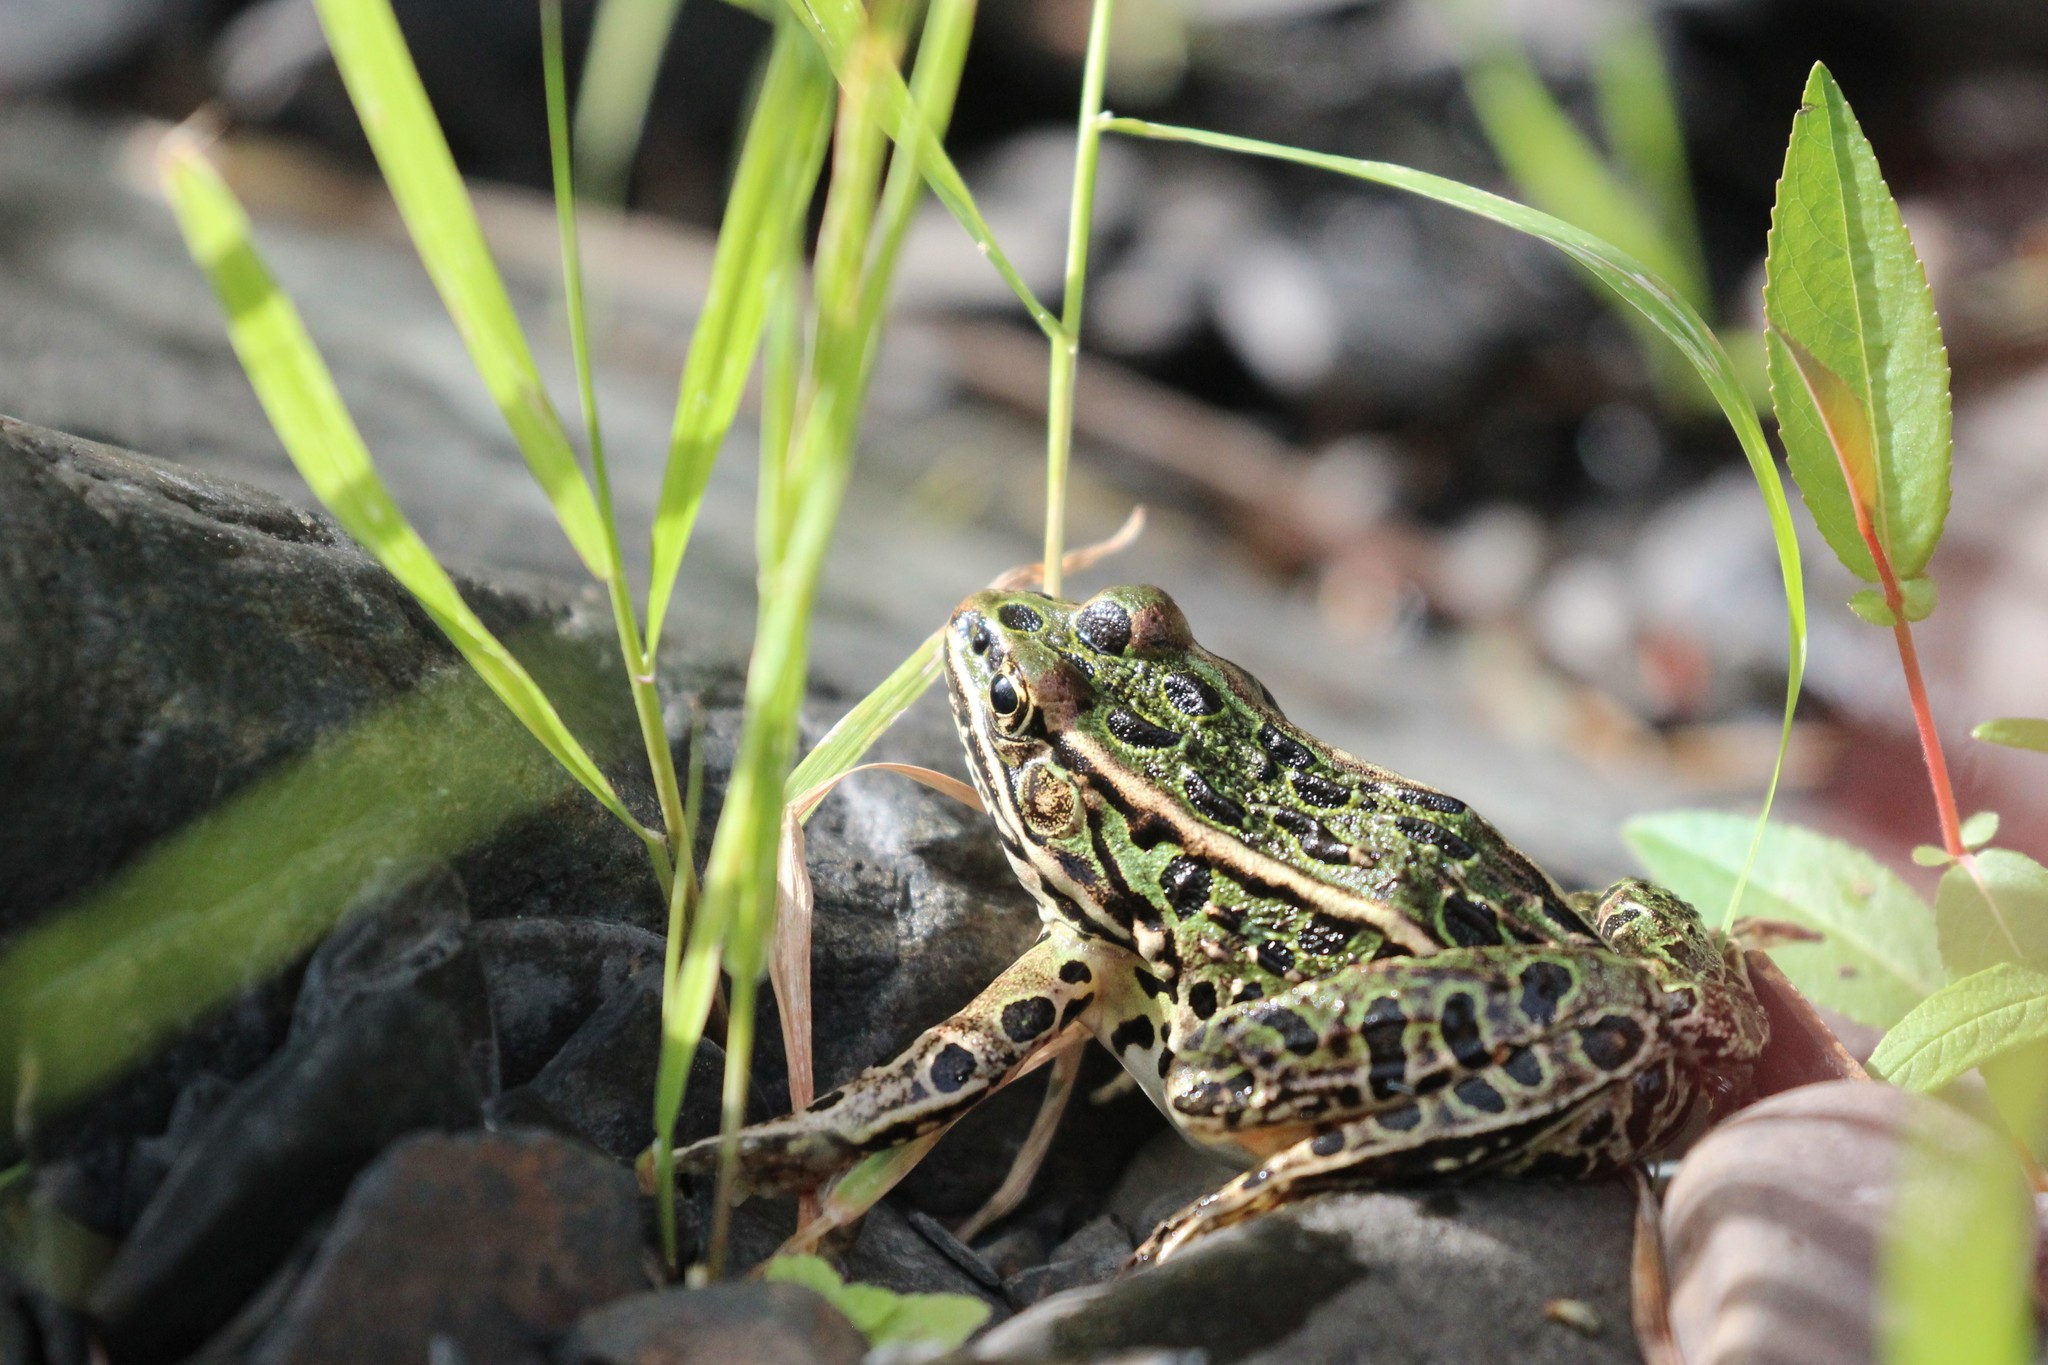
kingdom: Animalia
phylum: Chordata
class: Amphibia
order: Anura
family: Ranidae
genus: Lithobates
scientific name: Lithobates pipiens
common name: Northern leopard frog
